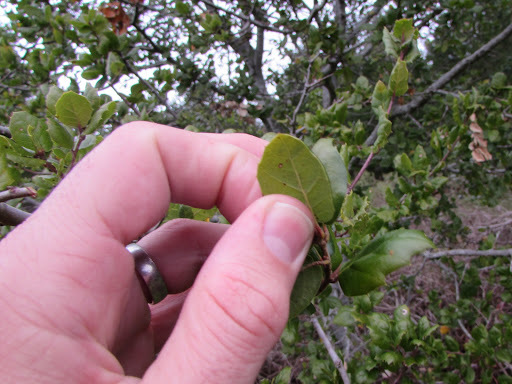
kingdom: Plantae
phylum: Tracheophyta
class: Magnoliopsida
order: Fagales
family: Fagaceae
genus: Quercus
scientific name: Quercus agrifolia
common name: California live oak
